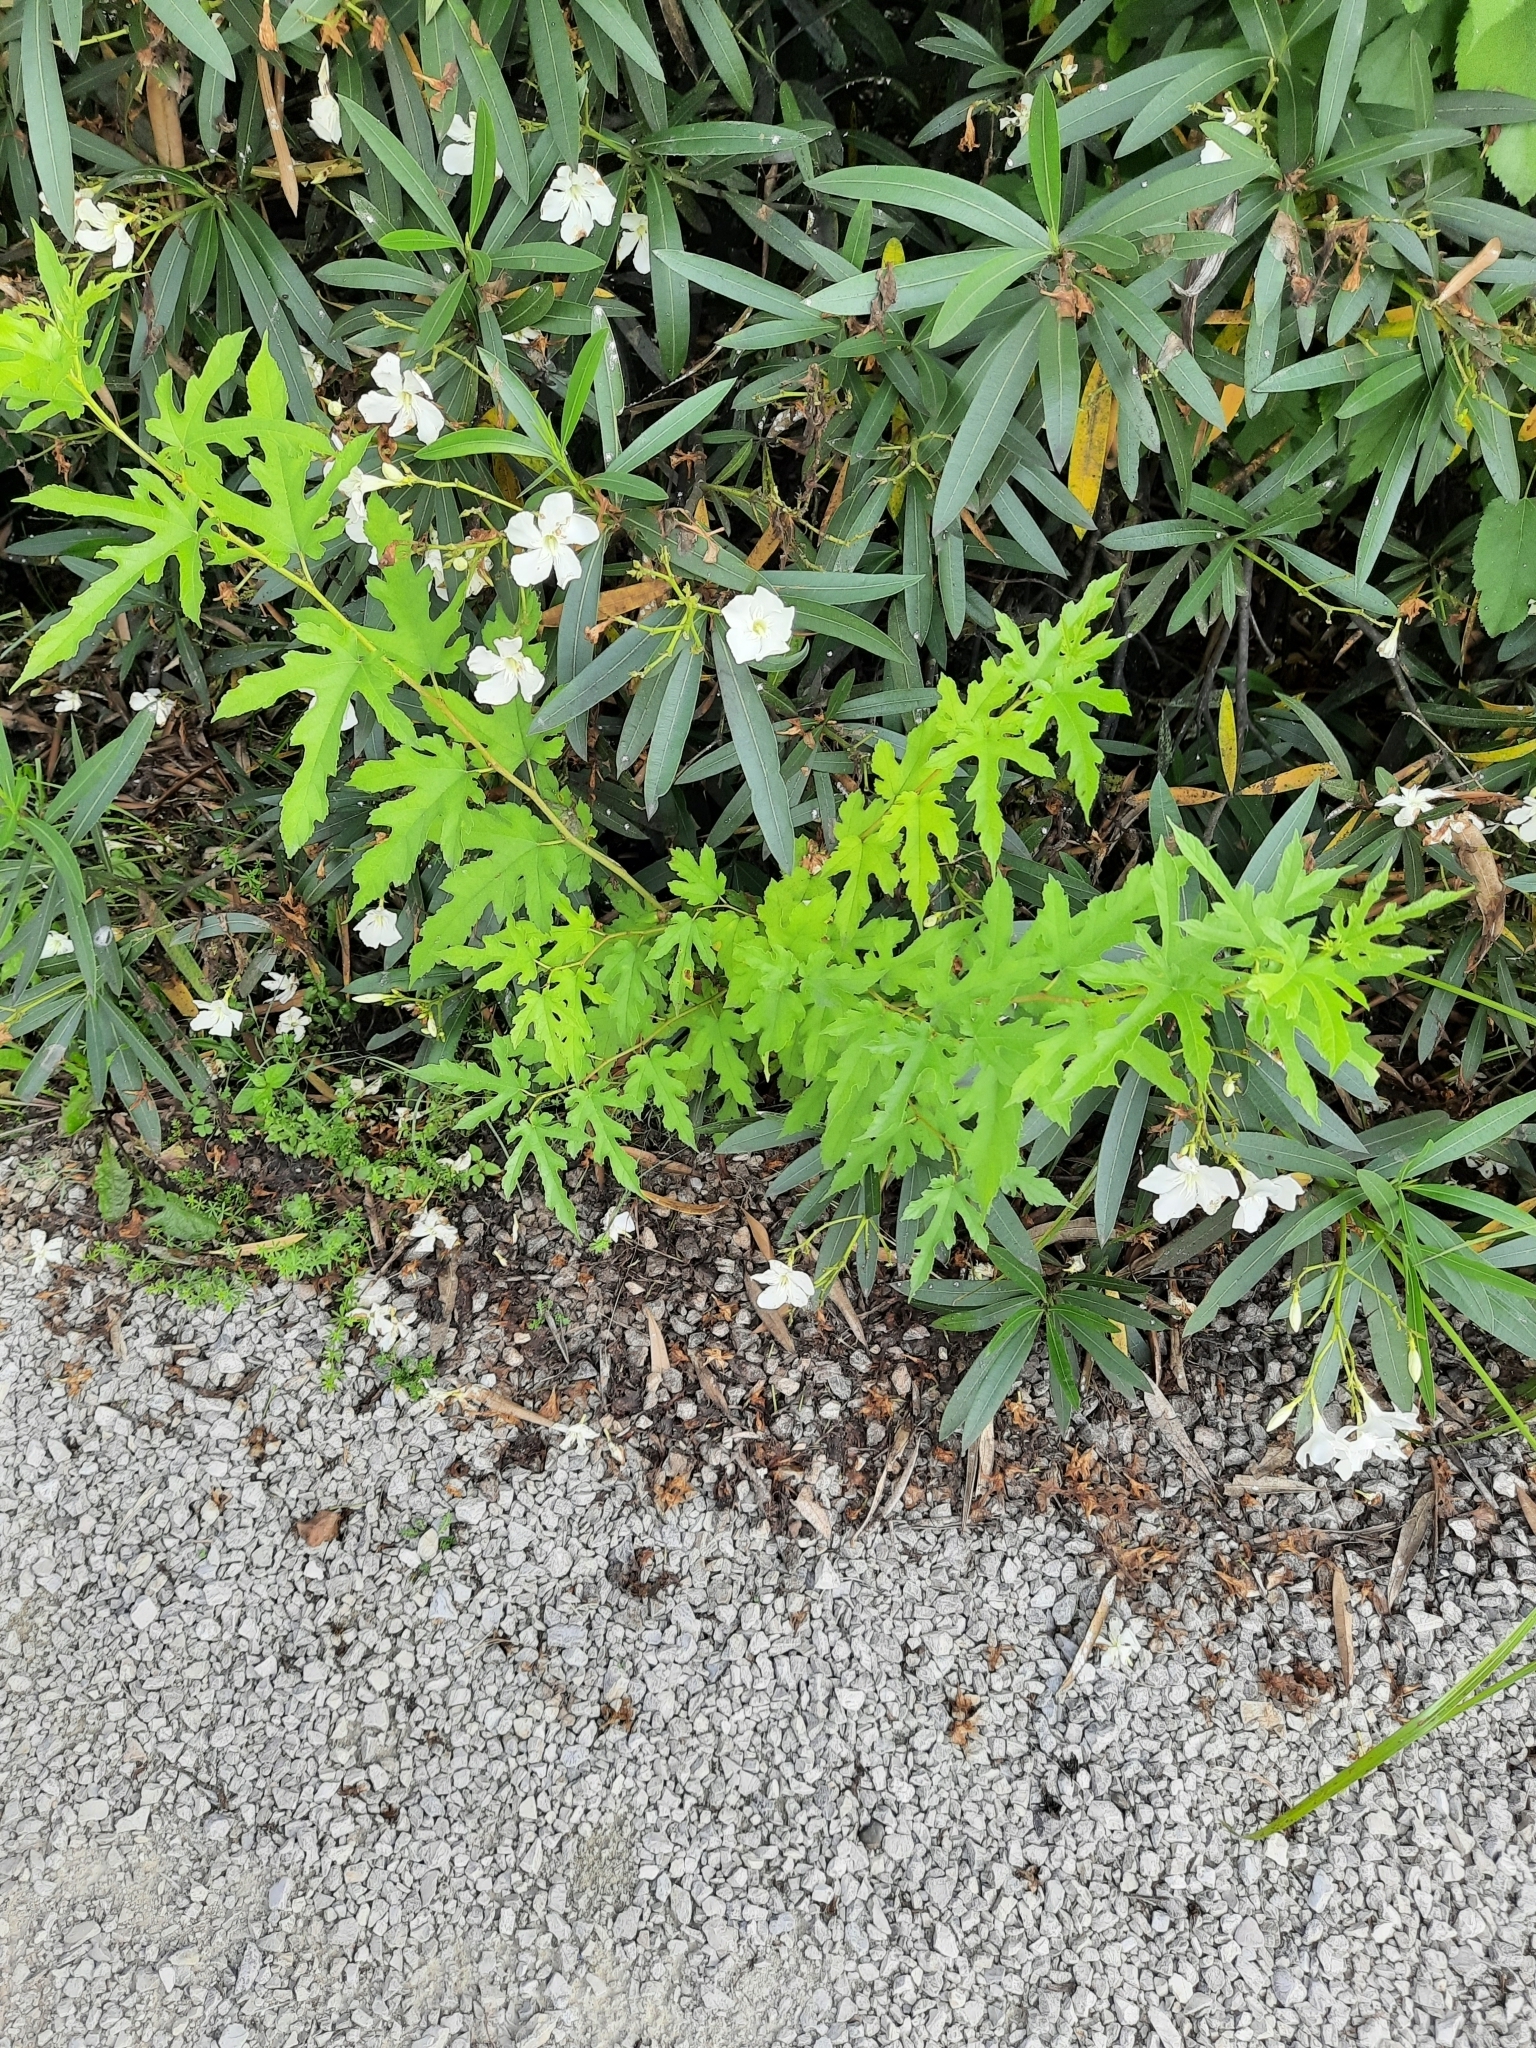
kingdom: Plantae
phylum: Tracheophyta
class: Magnoliopsida
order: Rosales
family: Moraceae
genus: Morus
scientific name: Morus alba
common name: White mulberry
